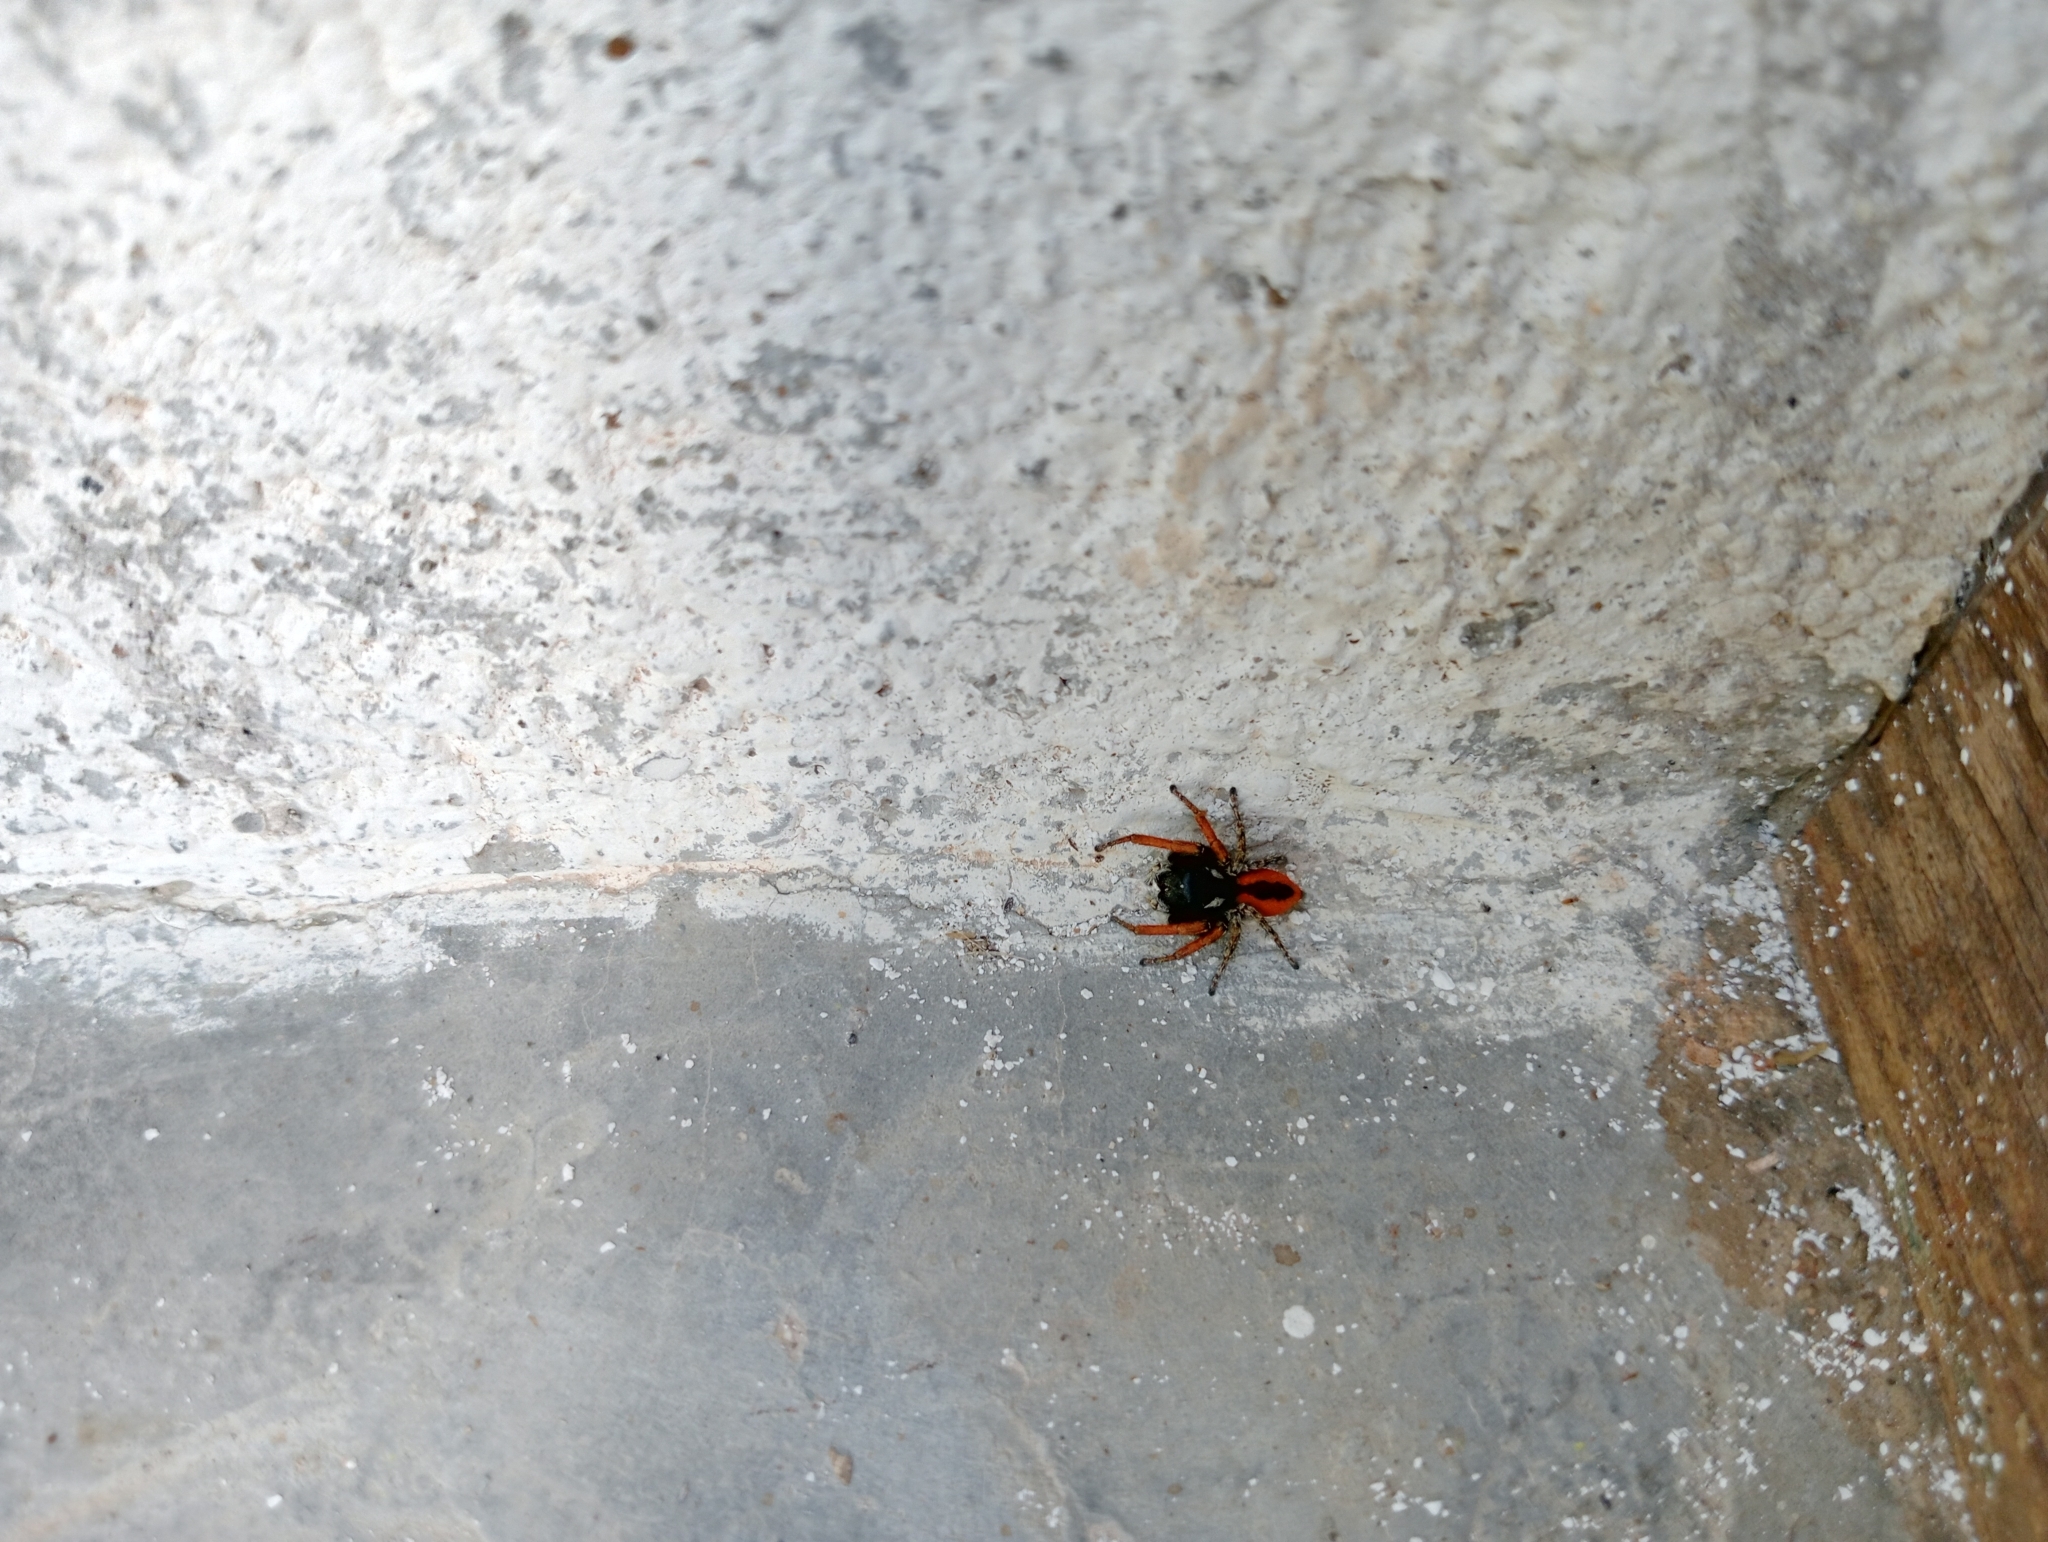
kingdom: Animalia
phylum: Arthropoda
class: Arachnida
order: Araneae
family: Salticidae
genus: Philaeus
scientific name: Philaeus chrysops
